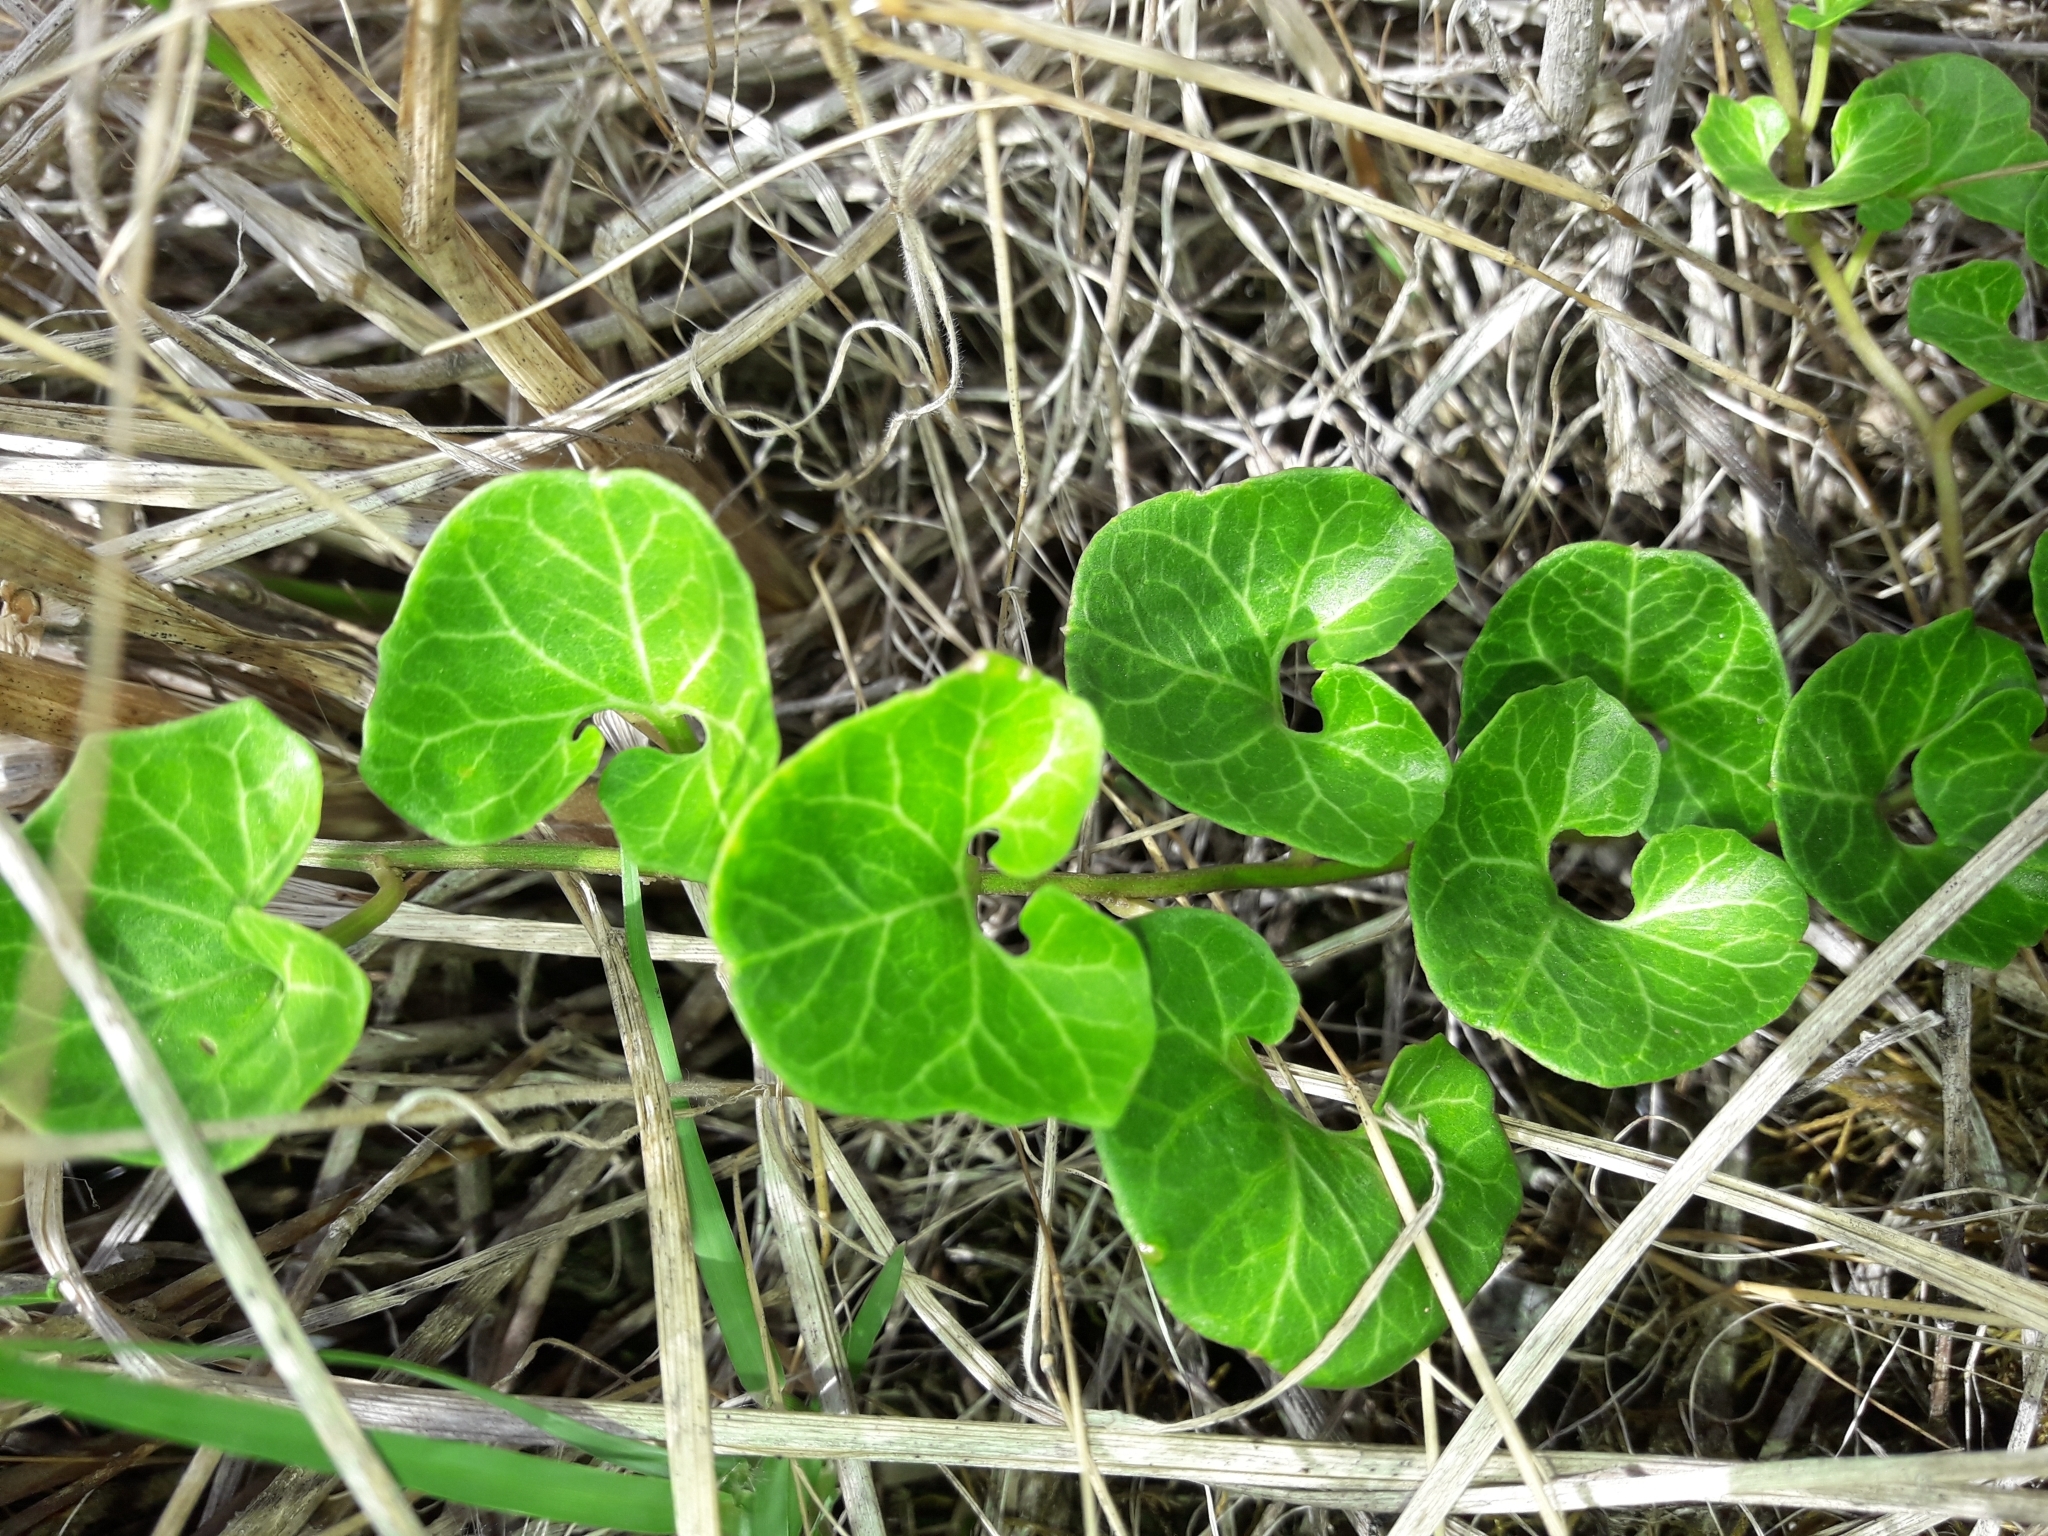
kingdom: Plantae
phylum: Tracheophyta
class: Magnoliopsida
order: Solanales
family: Convolvulaceae
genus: Calystegia
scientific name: Calystegia soldanella
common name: Sea bindweed
